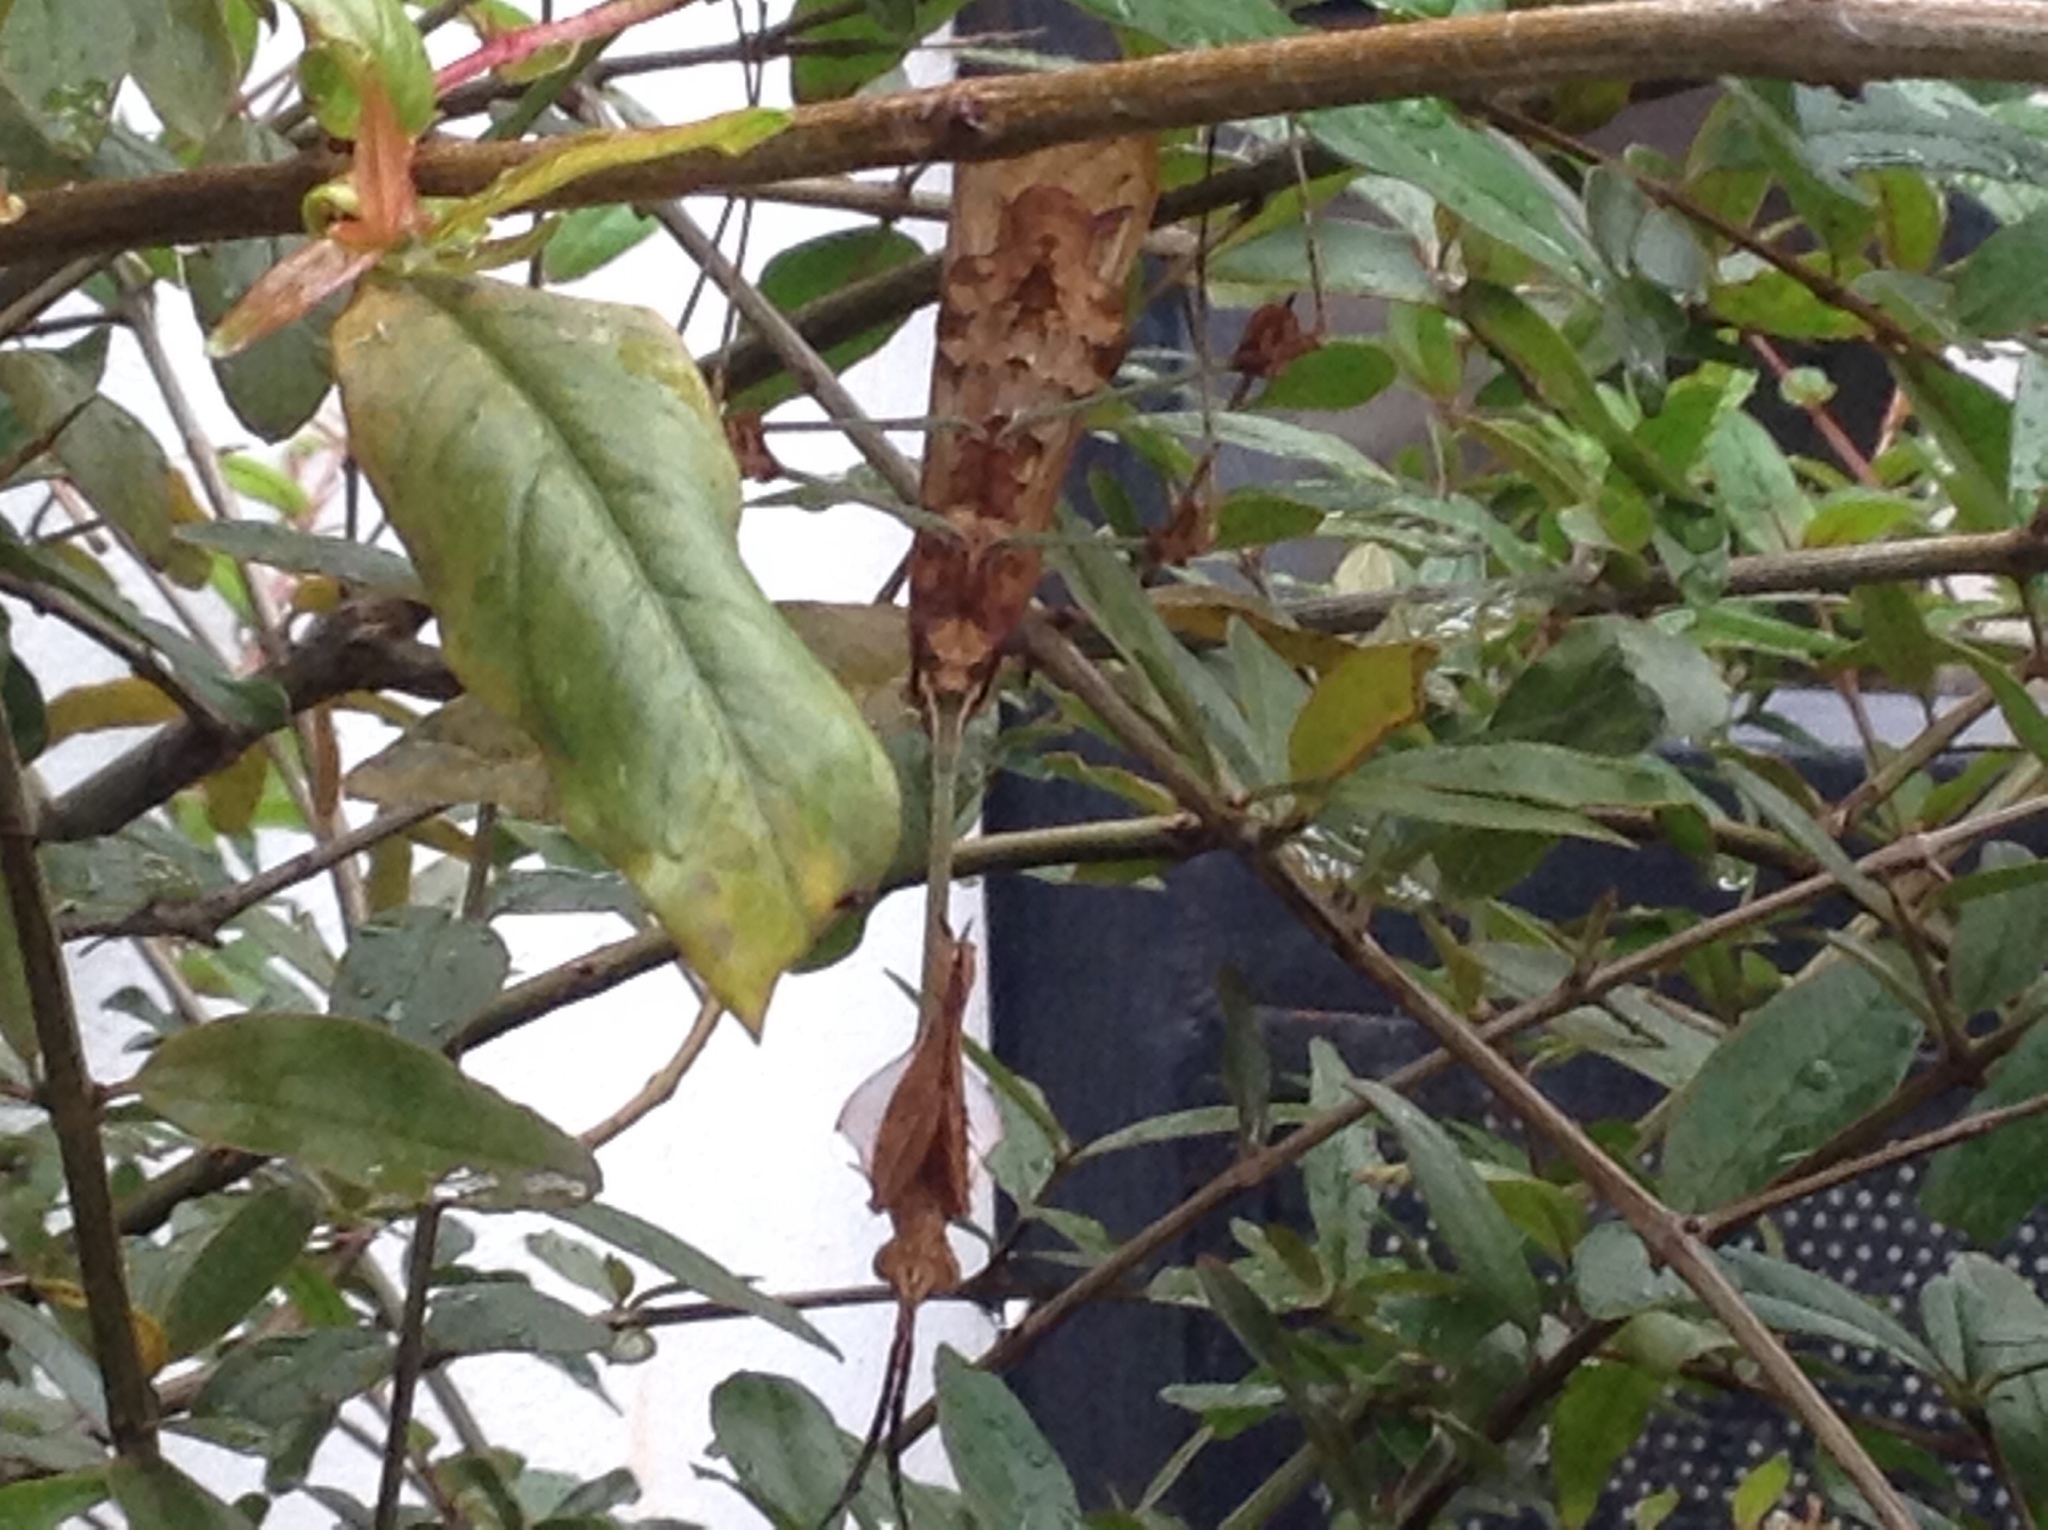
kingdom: Animalia
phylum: Arthropoda
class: Insecta
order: Mantodea
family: Empusidae
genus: Gongylus
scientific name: Gongylus gongylodes
